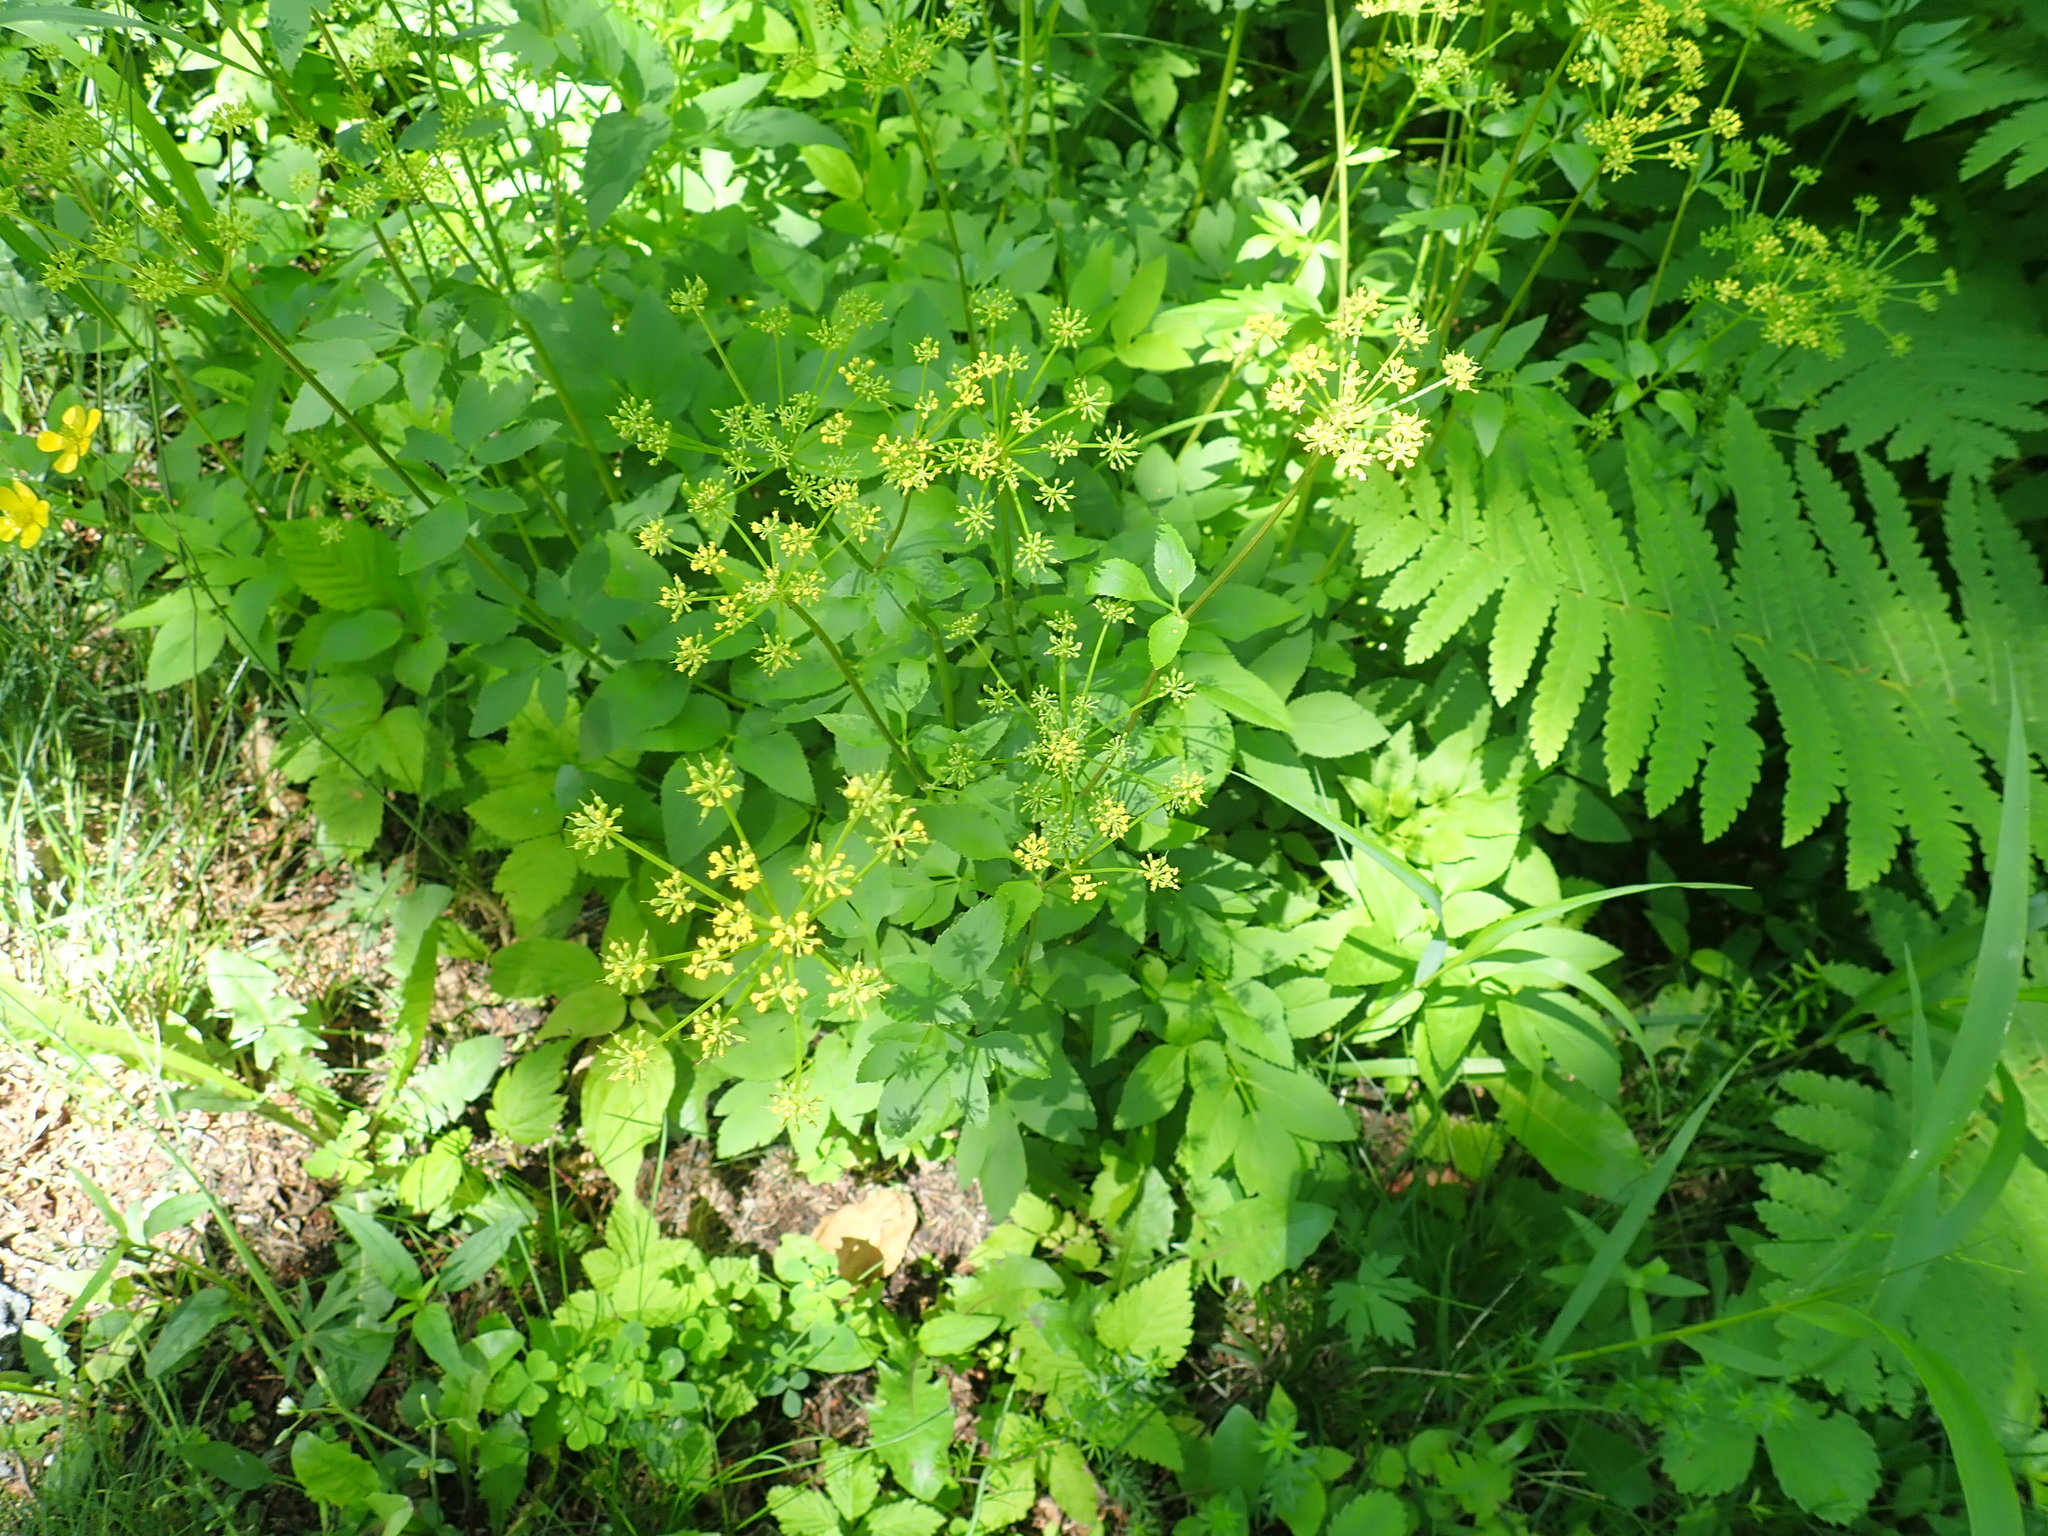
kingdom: Plantae
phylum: Tracheophyta
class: Magnoliopsida
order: Apiales
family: Apiaceae
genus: Zizia
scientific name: Zizia aurea
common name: Golden alexanders
